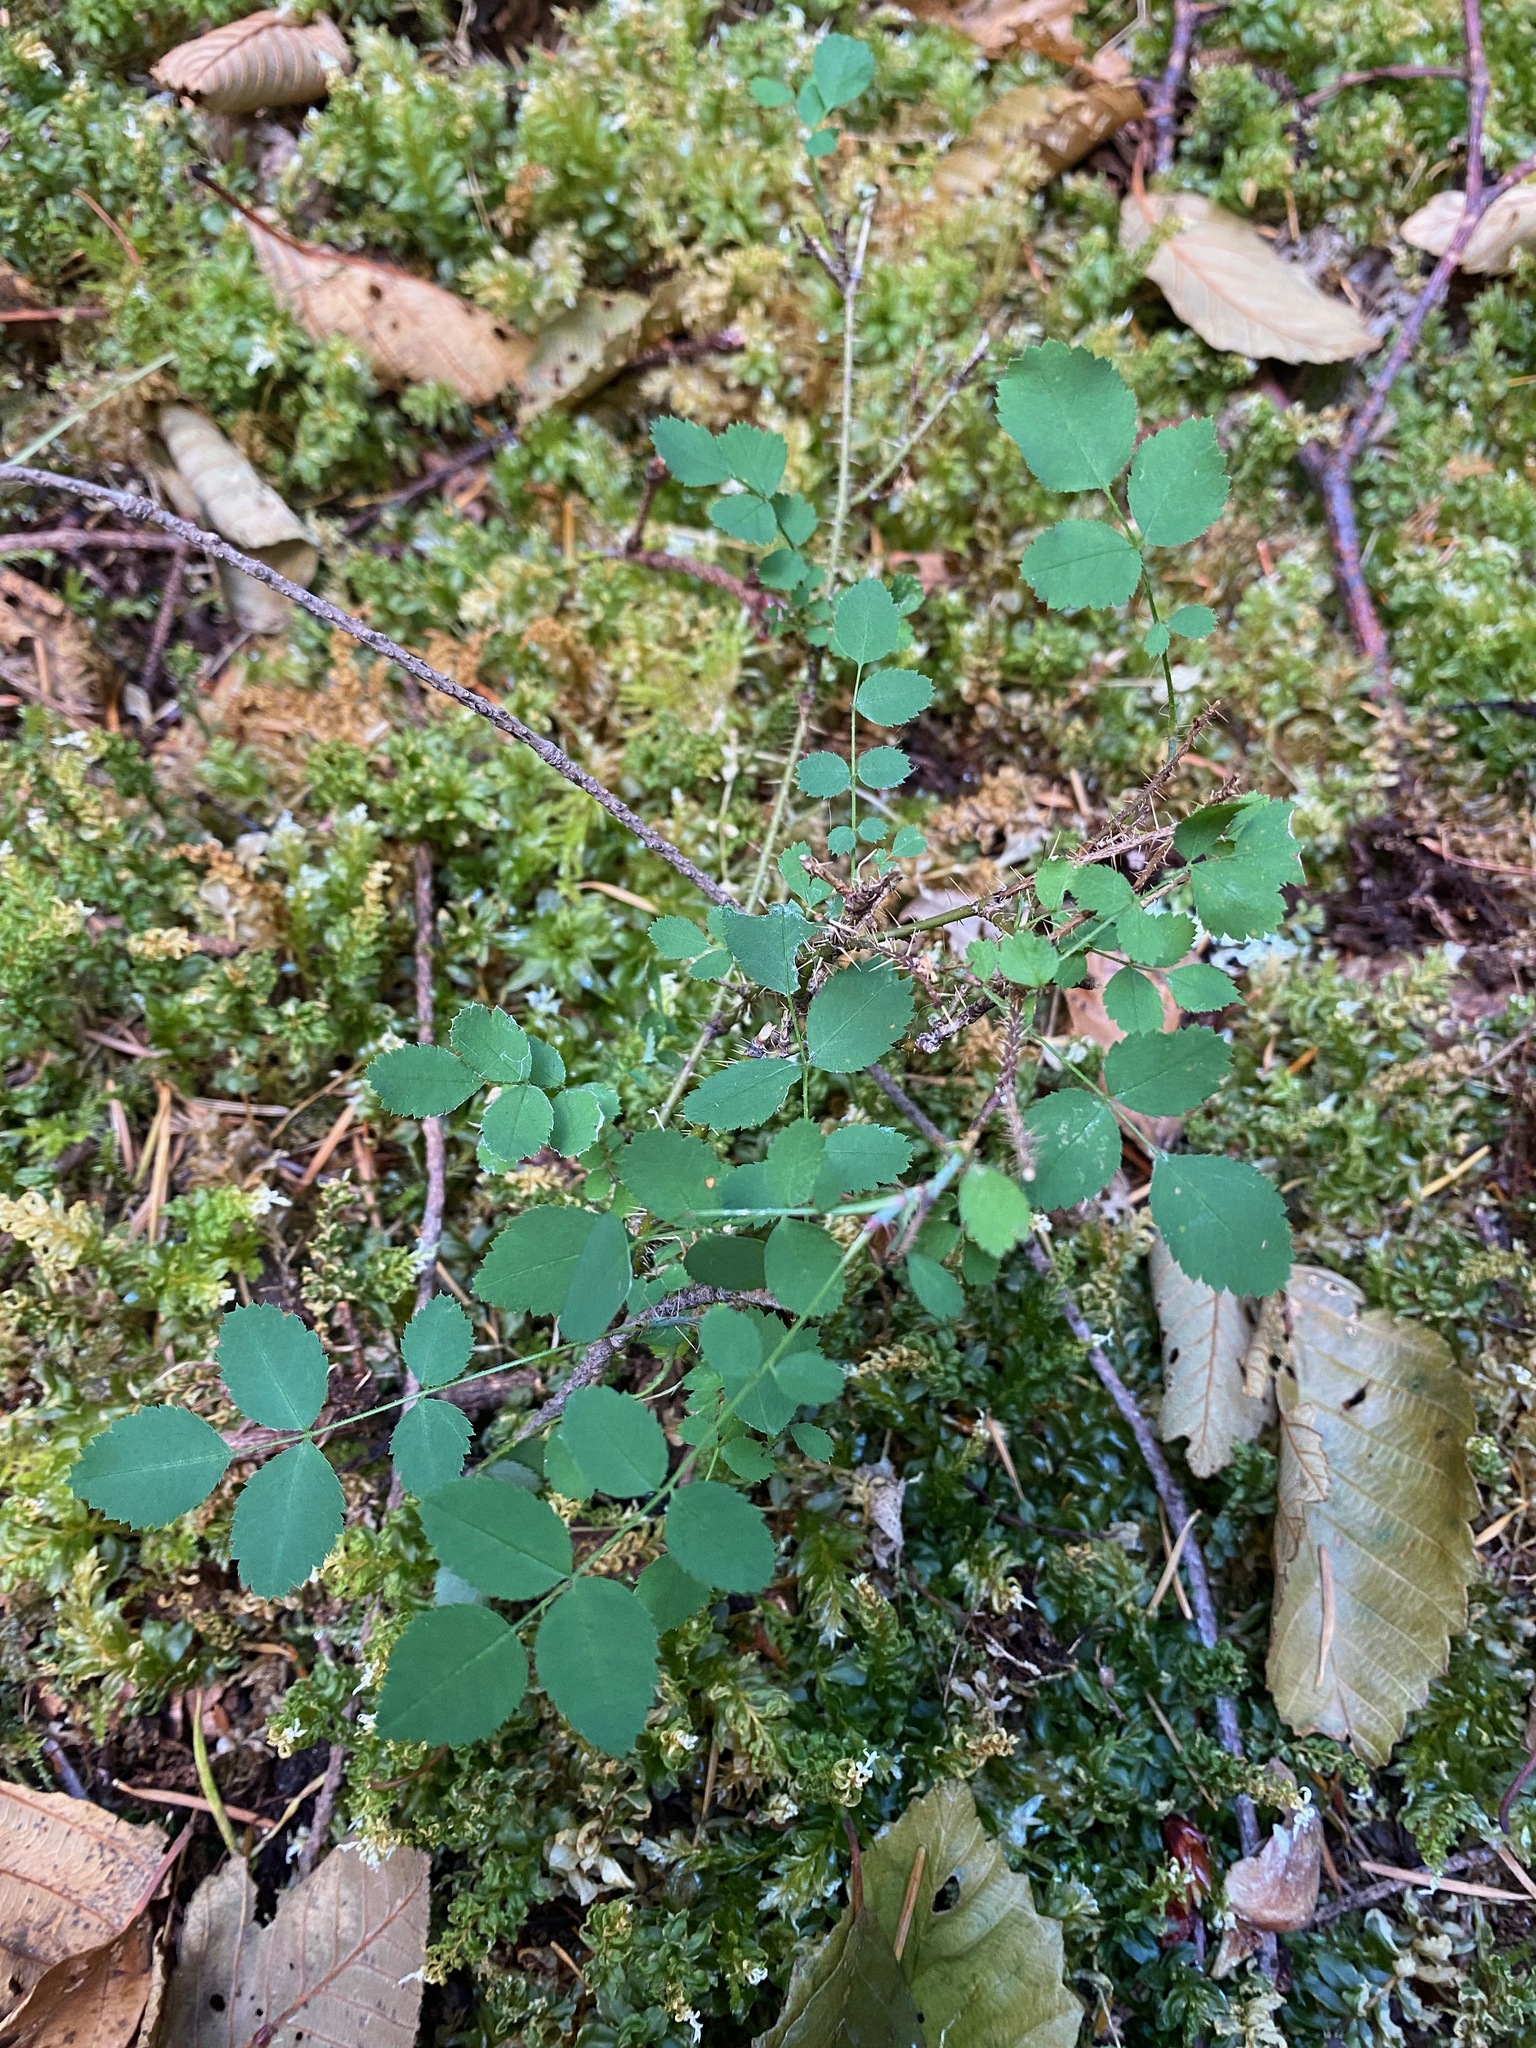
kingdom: Plantae
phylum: Tracheophyta
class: Magnoliopsida
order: Rosales
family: Rosaceae
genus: Rosa
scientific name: Rosa gymnocarpa
